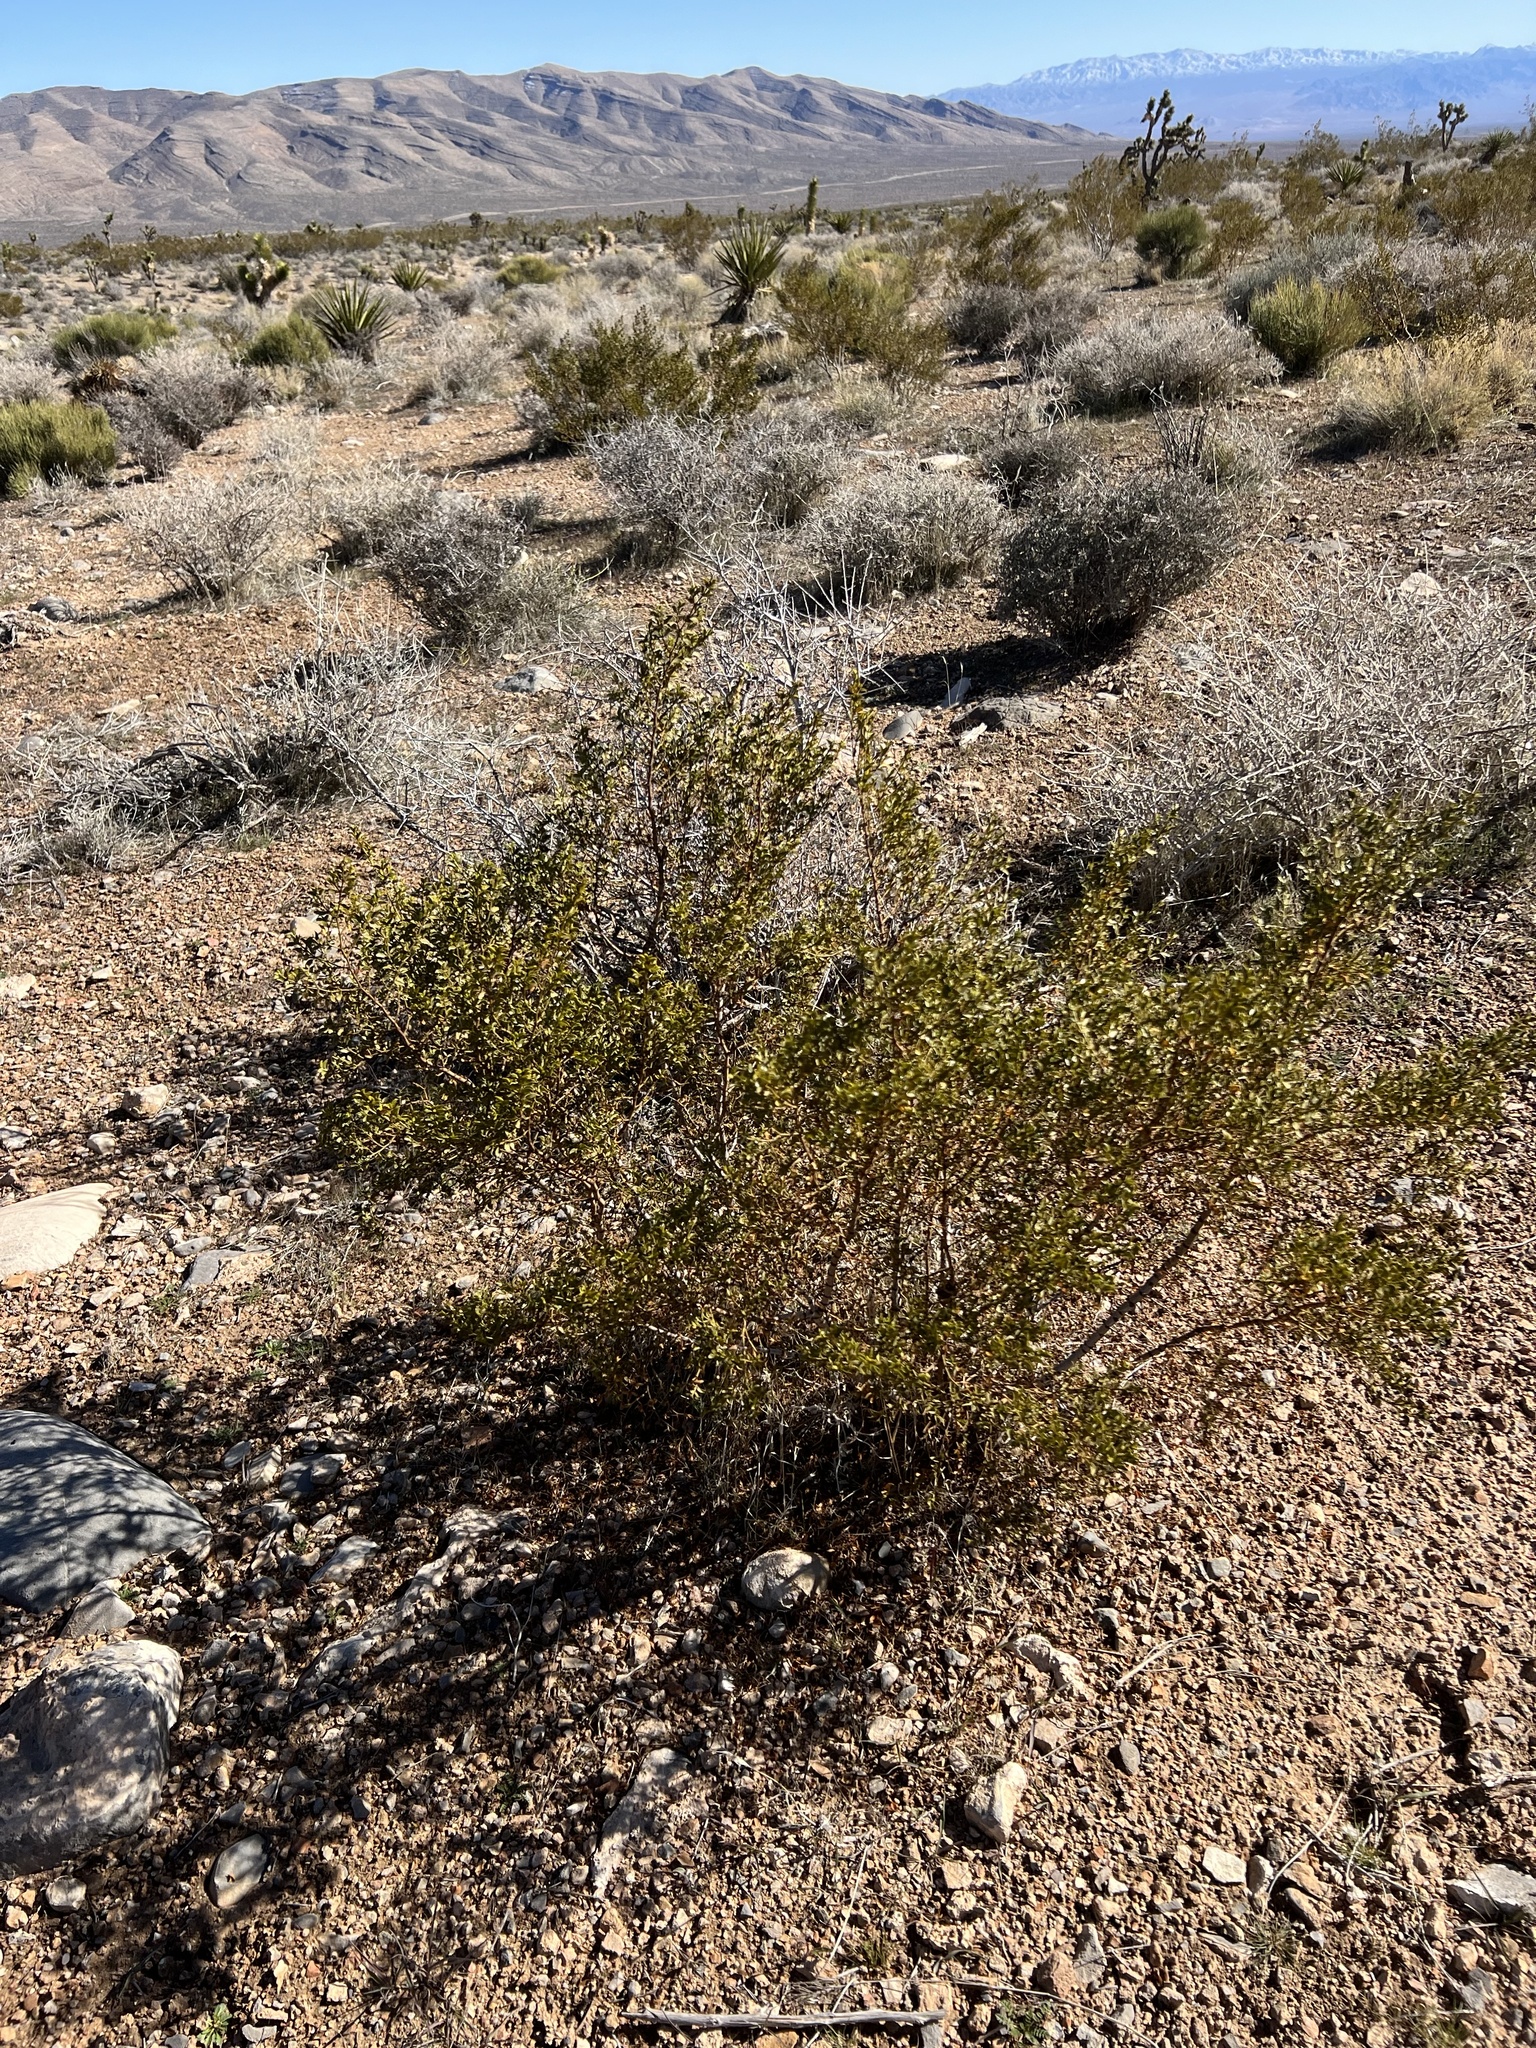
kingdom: Plantae
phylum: Tracheophyta
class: Magnoliopsida
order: Zygophyllales
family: Zygophyllaceae
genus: Larrea
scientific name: Larrea tridentata
